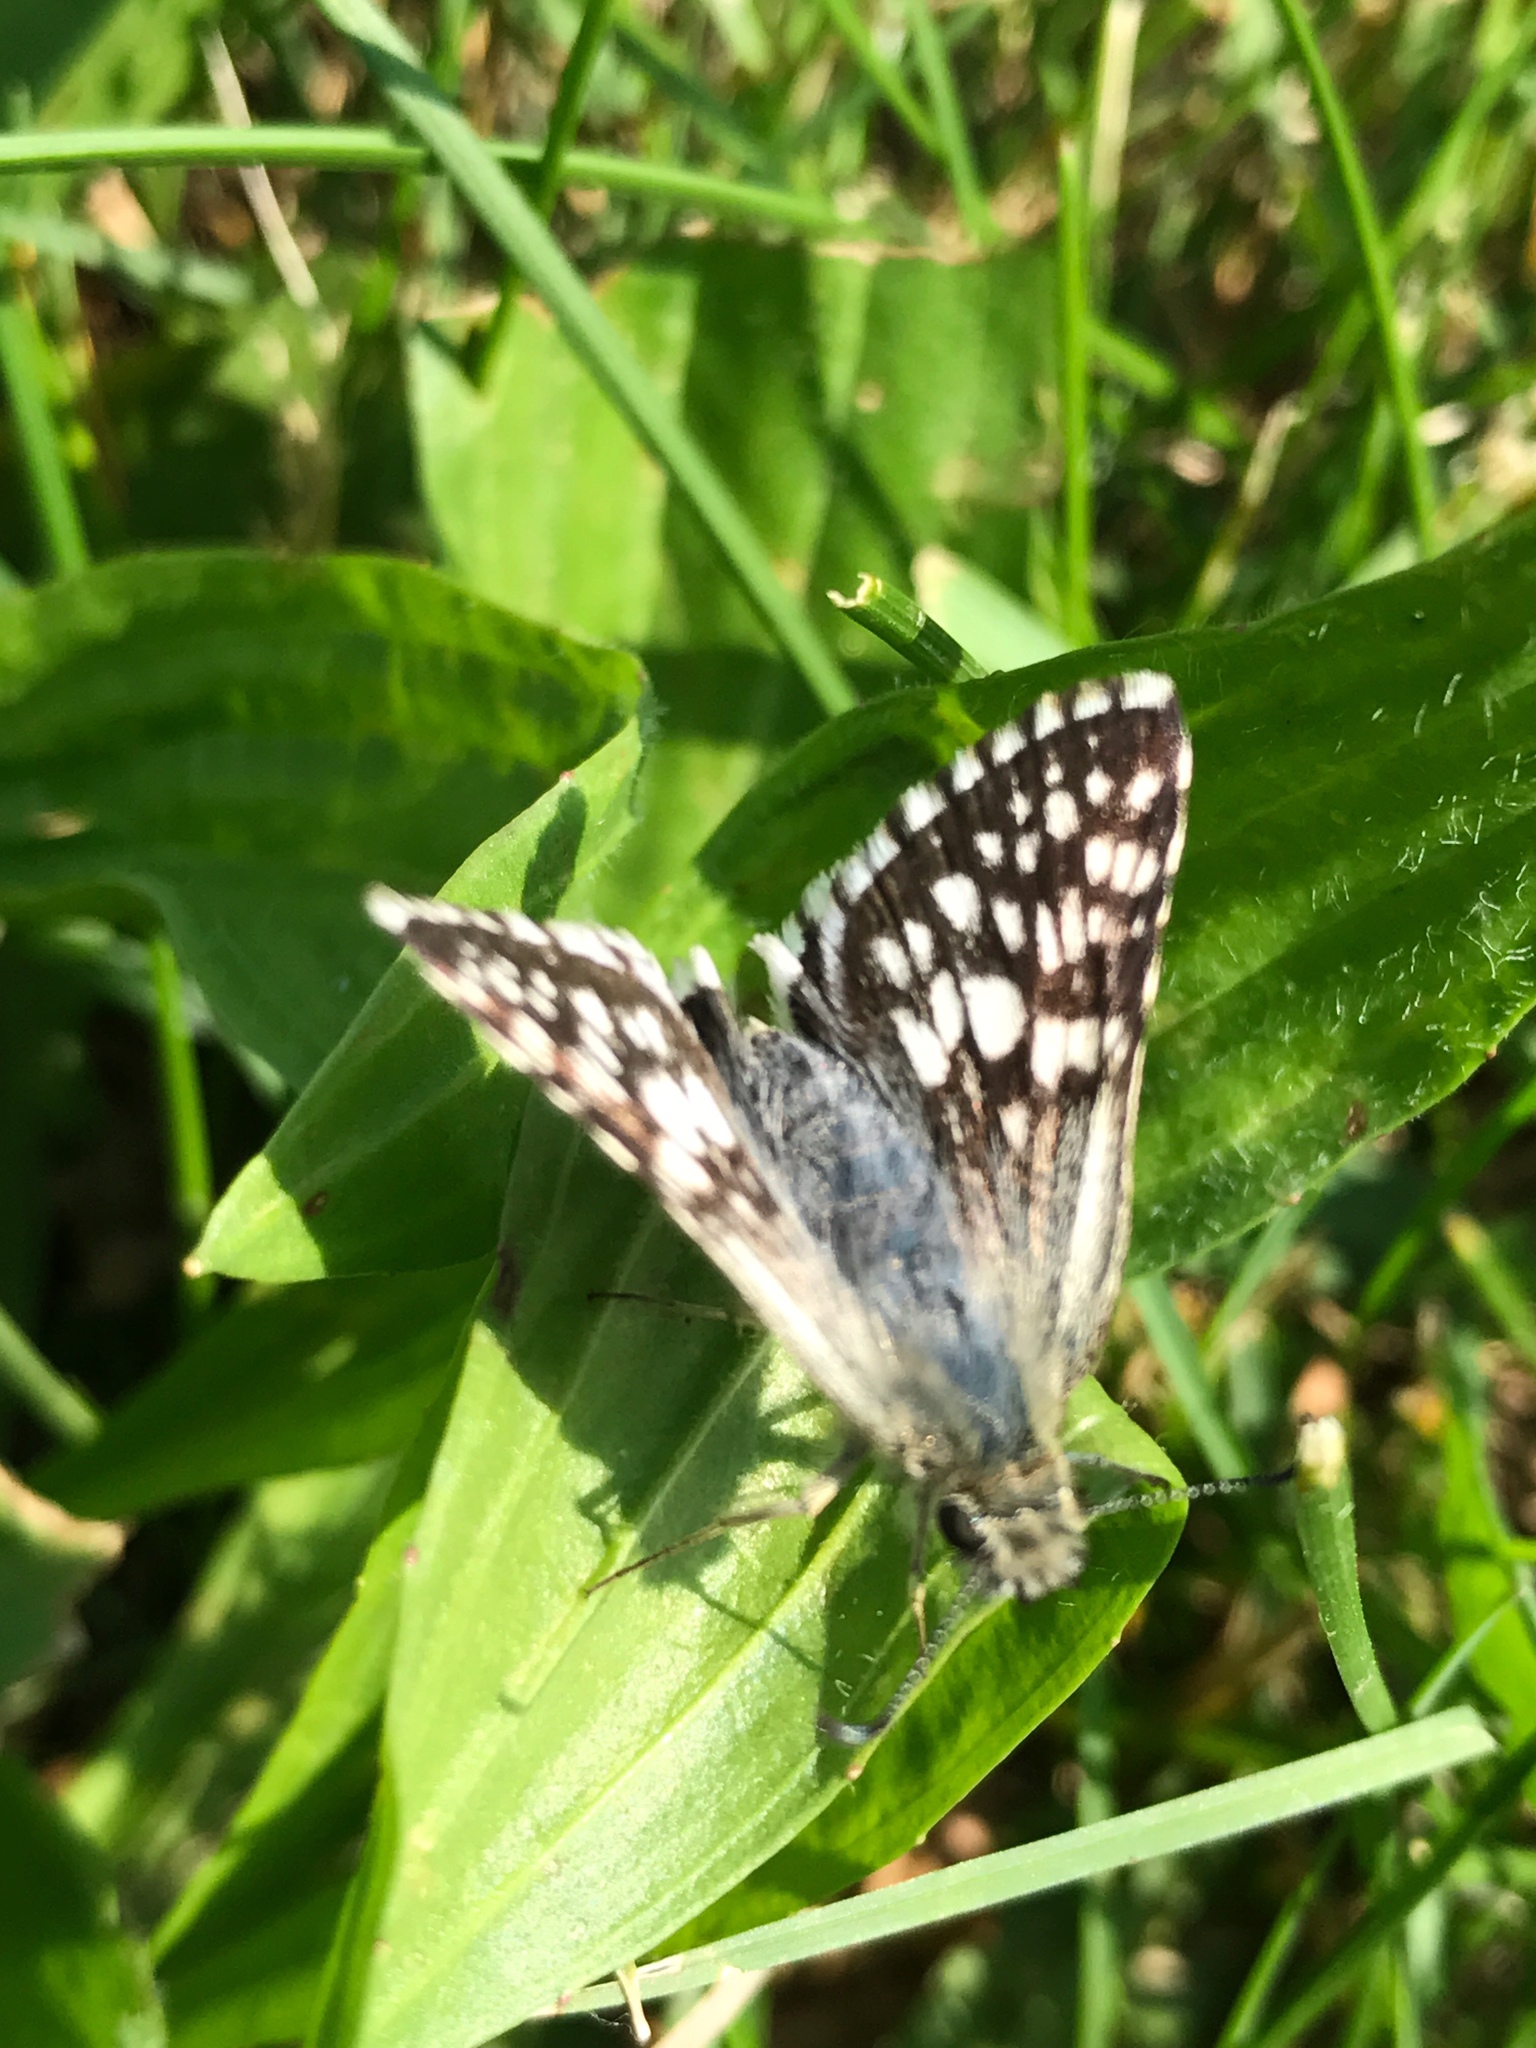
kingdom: Animalia
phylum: Arthropoda
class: Insecta
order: Lepidoptera
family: Hesperiidae
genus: Burnsius
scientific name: Burnsius communis
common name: Common checkered-skipper
